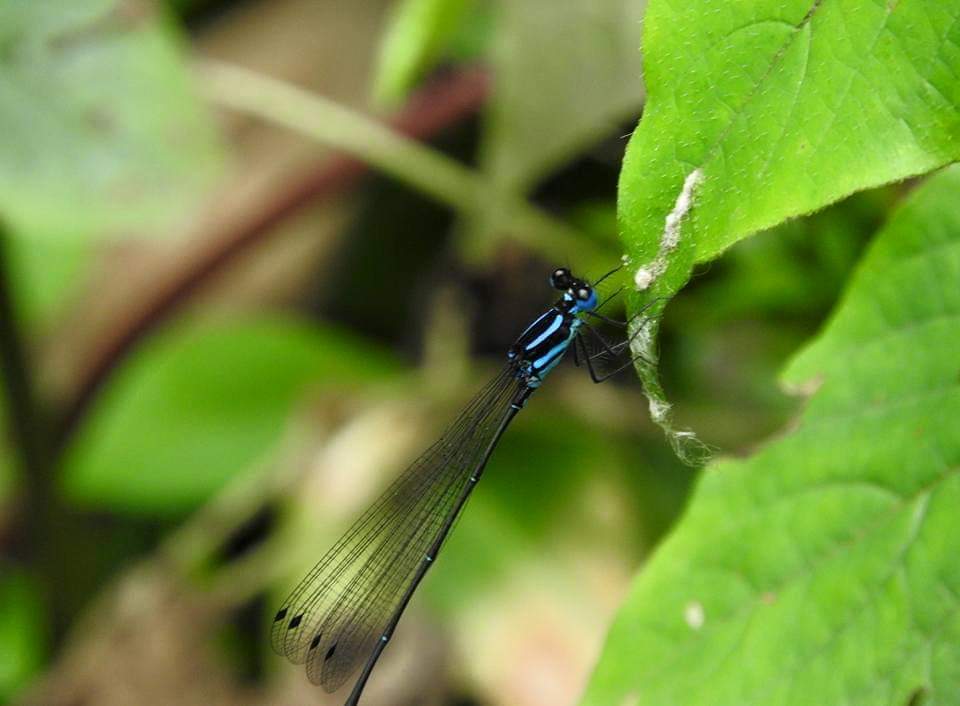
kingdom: Animalia
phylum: Arthropoda
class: Insecta
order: Odonata
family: Platycnemididae
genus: Esme
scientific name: Esme mudiensis
